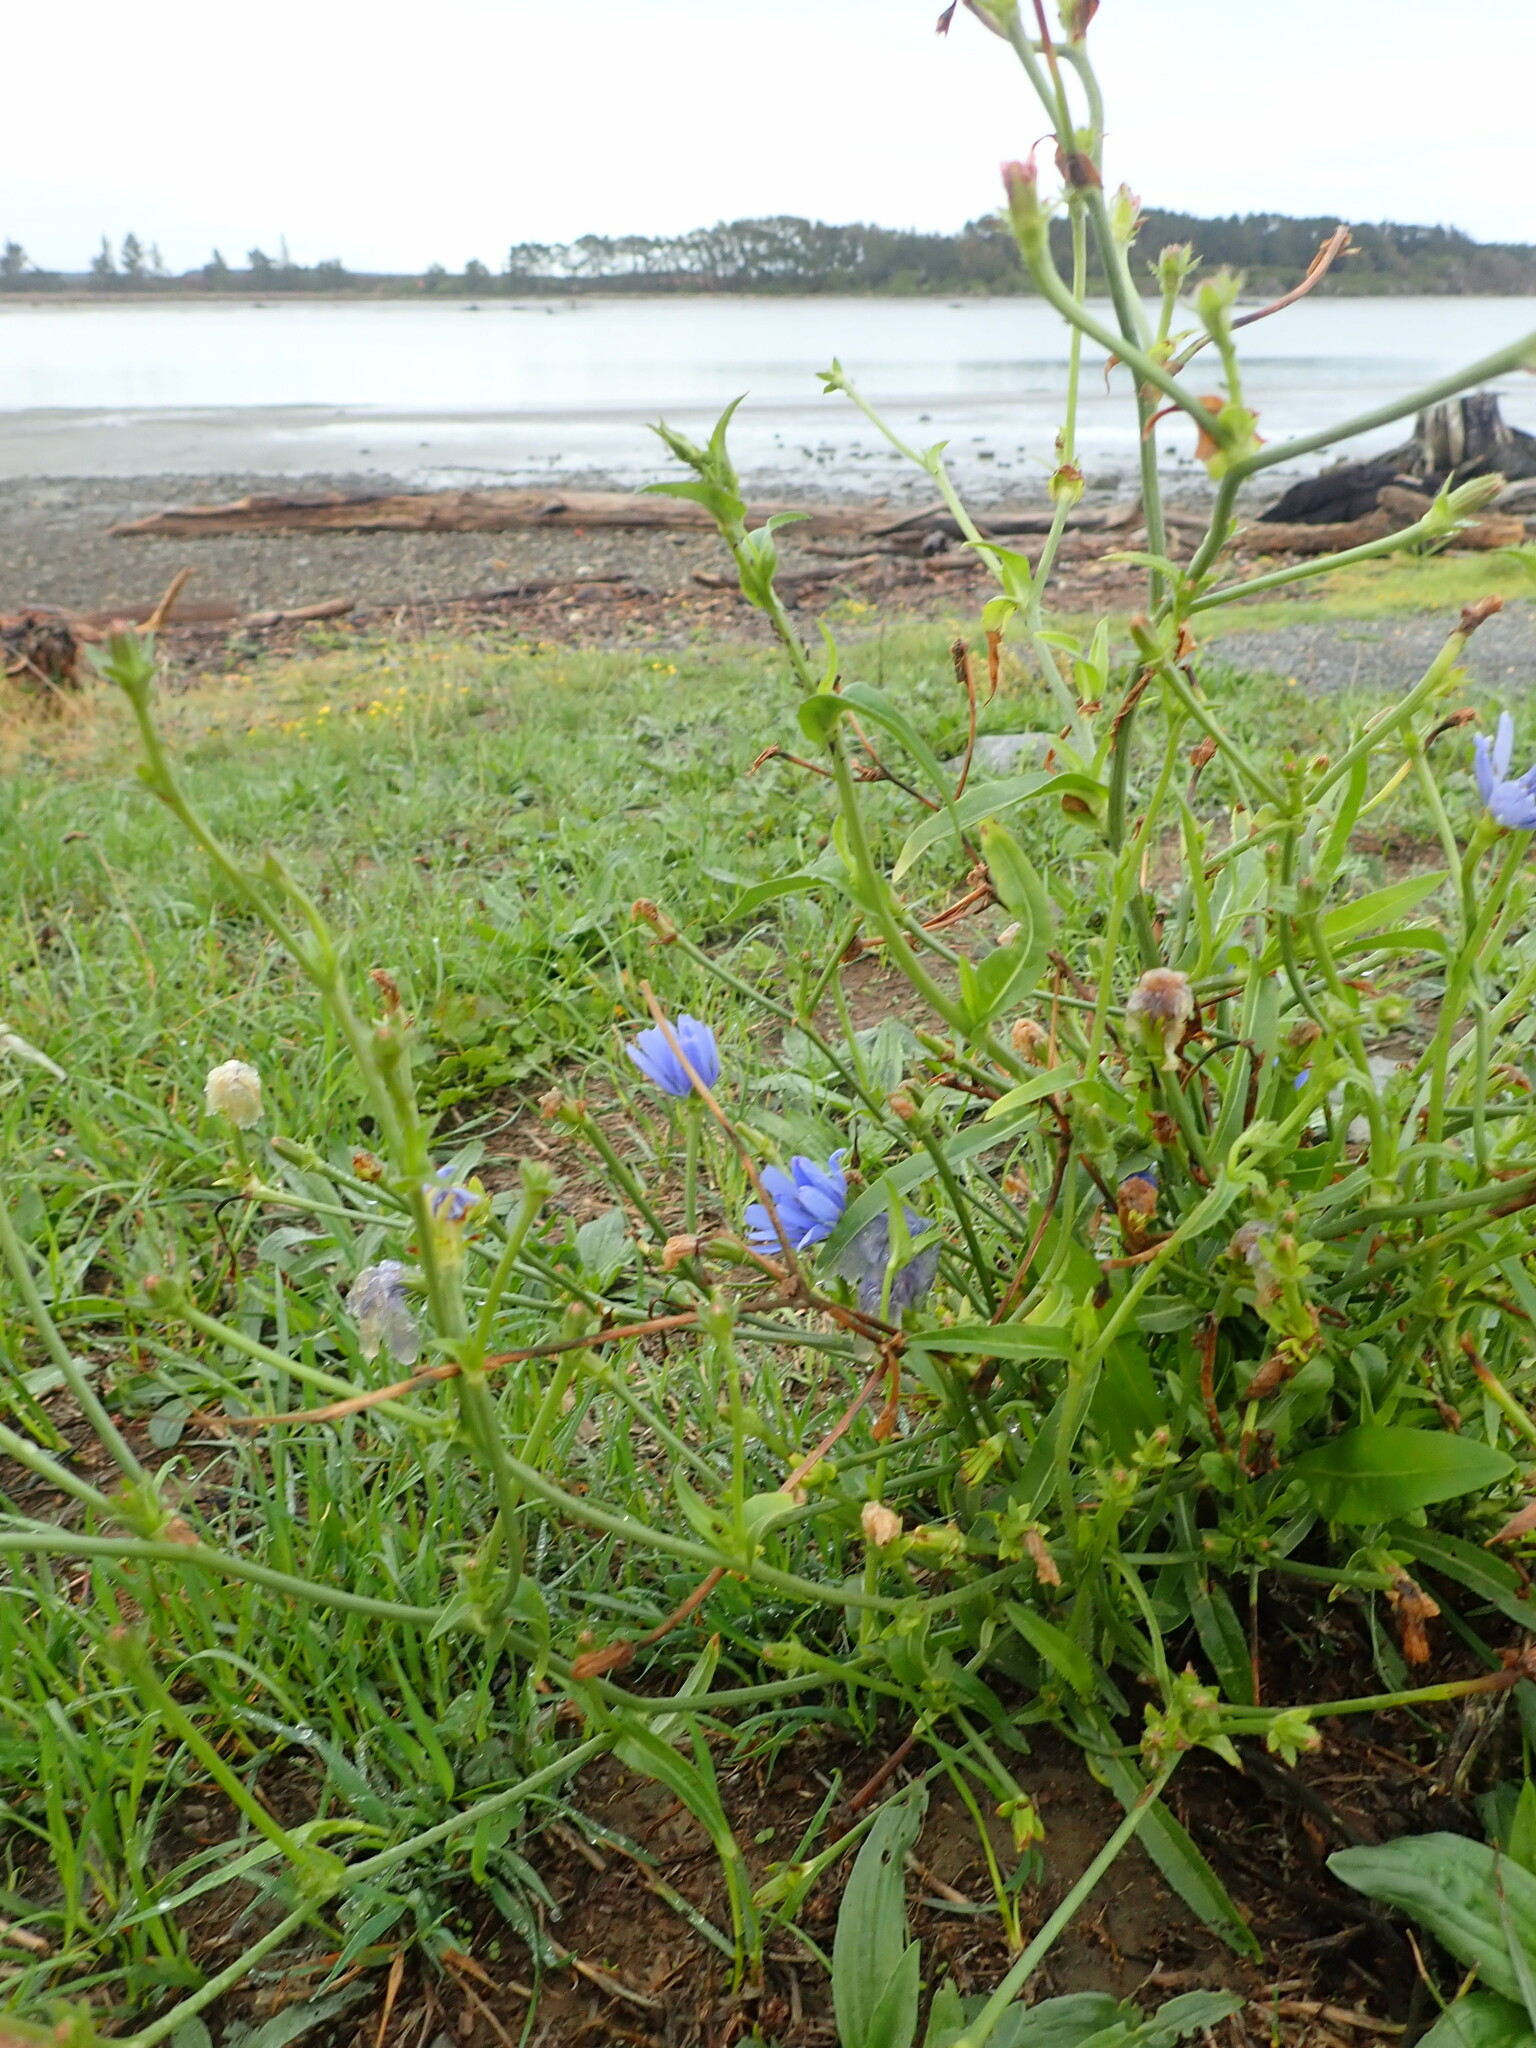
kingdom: Plantae
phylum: Tracheophyta
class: Magnoliopsida
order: Asterales
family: Asteraceae
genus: Cichorium
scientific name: Cichorium intybus
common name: Chicory
